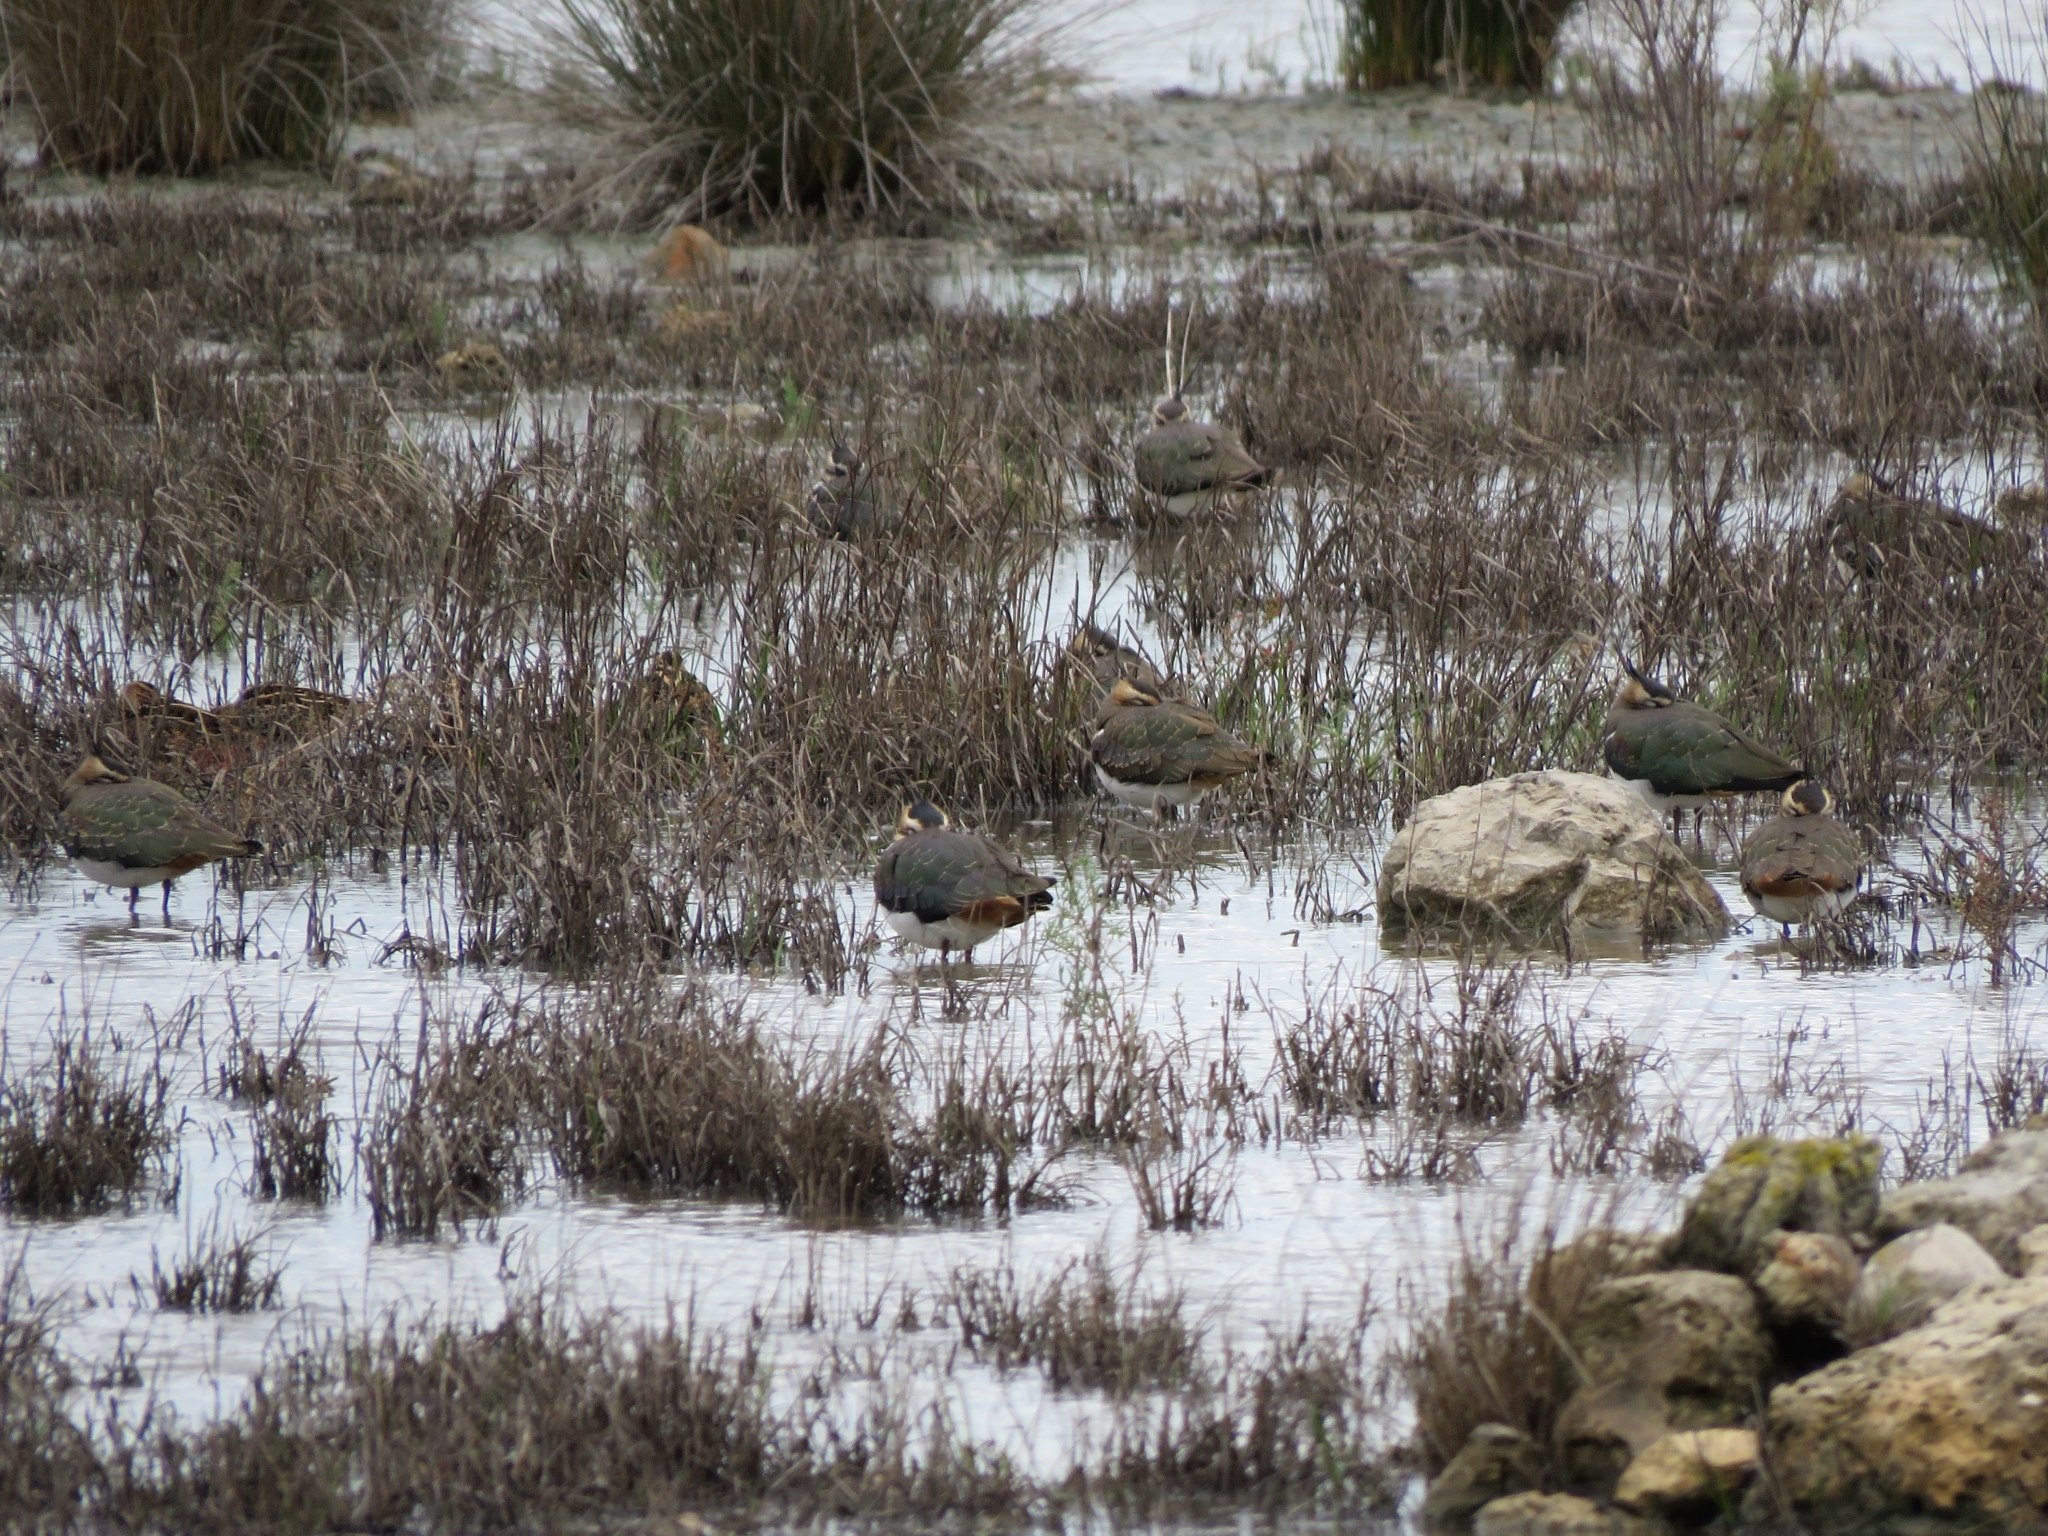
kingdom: Animalia
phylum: Chordata
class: Aves
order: Charadriiformes
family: Charadriidae
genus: Vanellus
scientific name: Vanellus vanellus
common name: Northern lapwing
